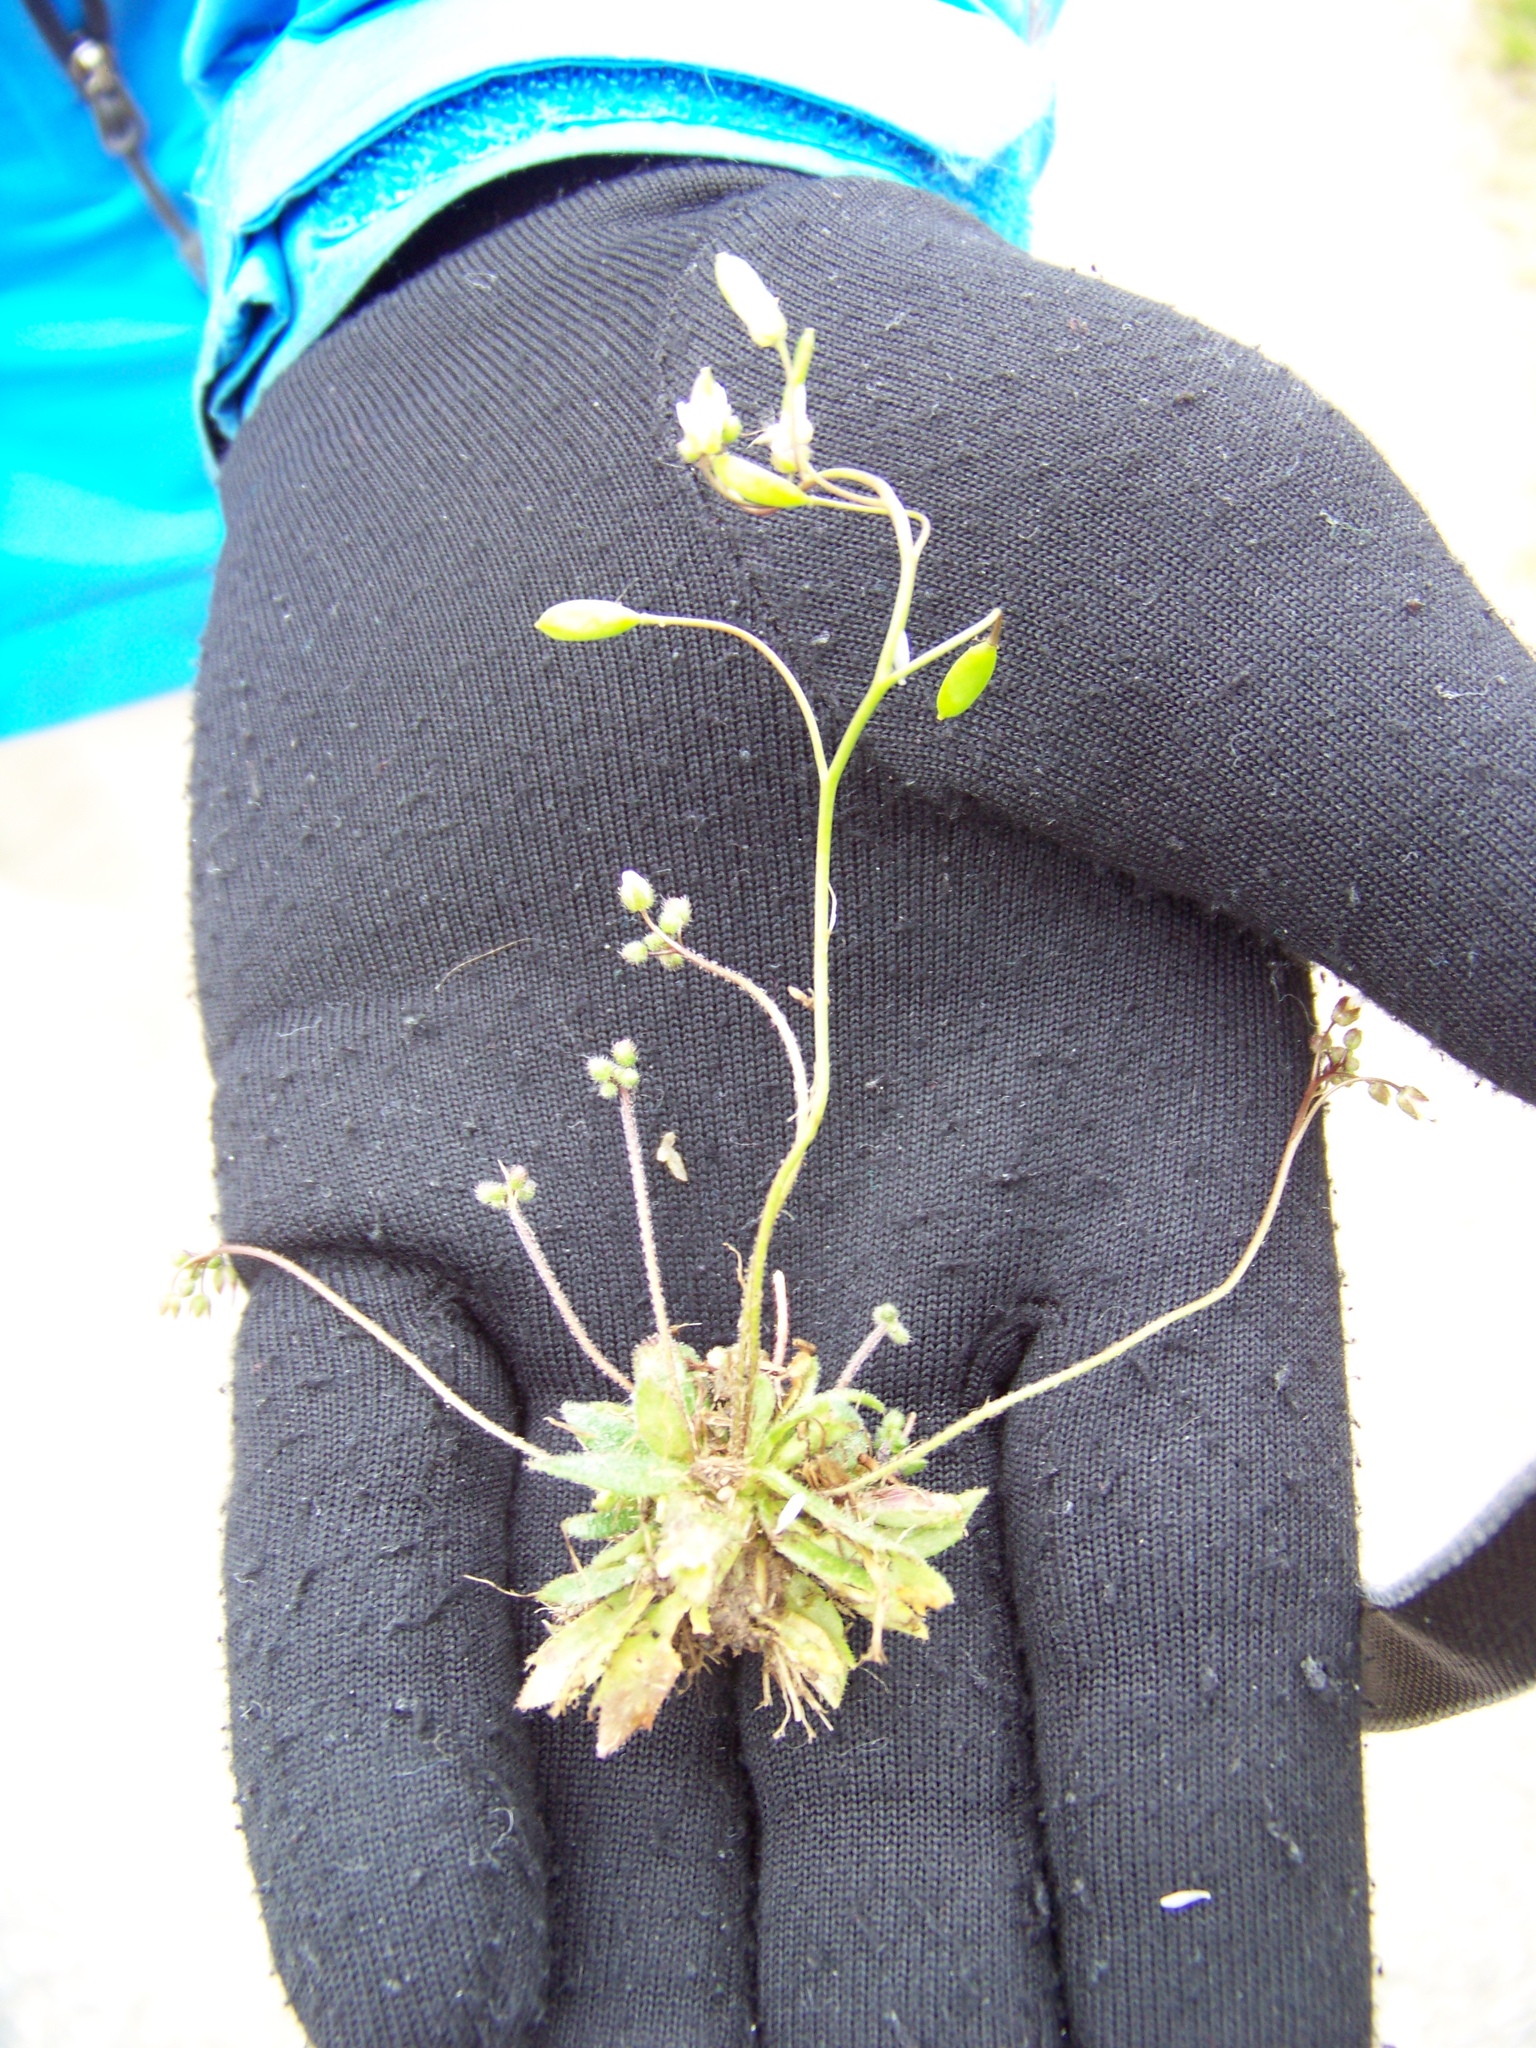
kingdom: Plantae
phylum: Tracheophyta
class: Magnoliopsida
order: Brassicales
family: Brassicaceae
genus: Draba
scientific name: Draba verna
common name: Spring draba
